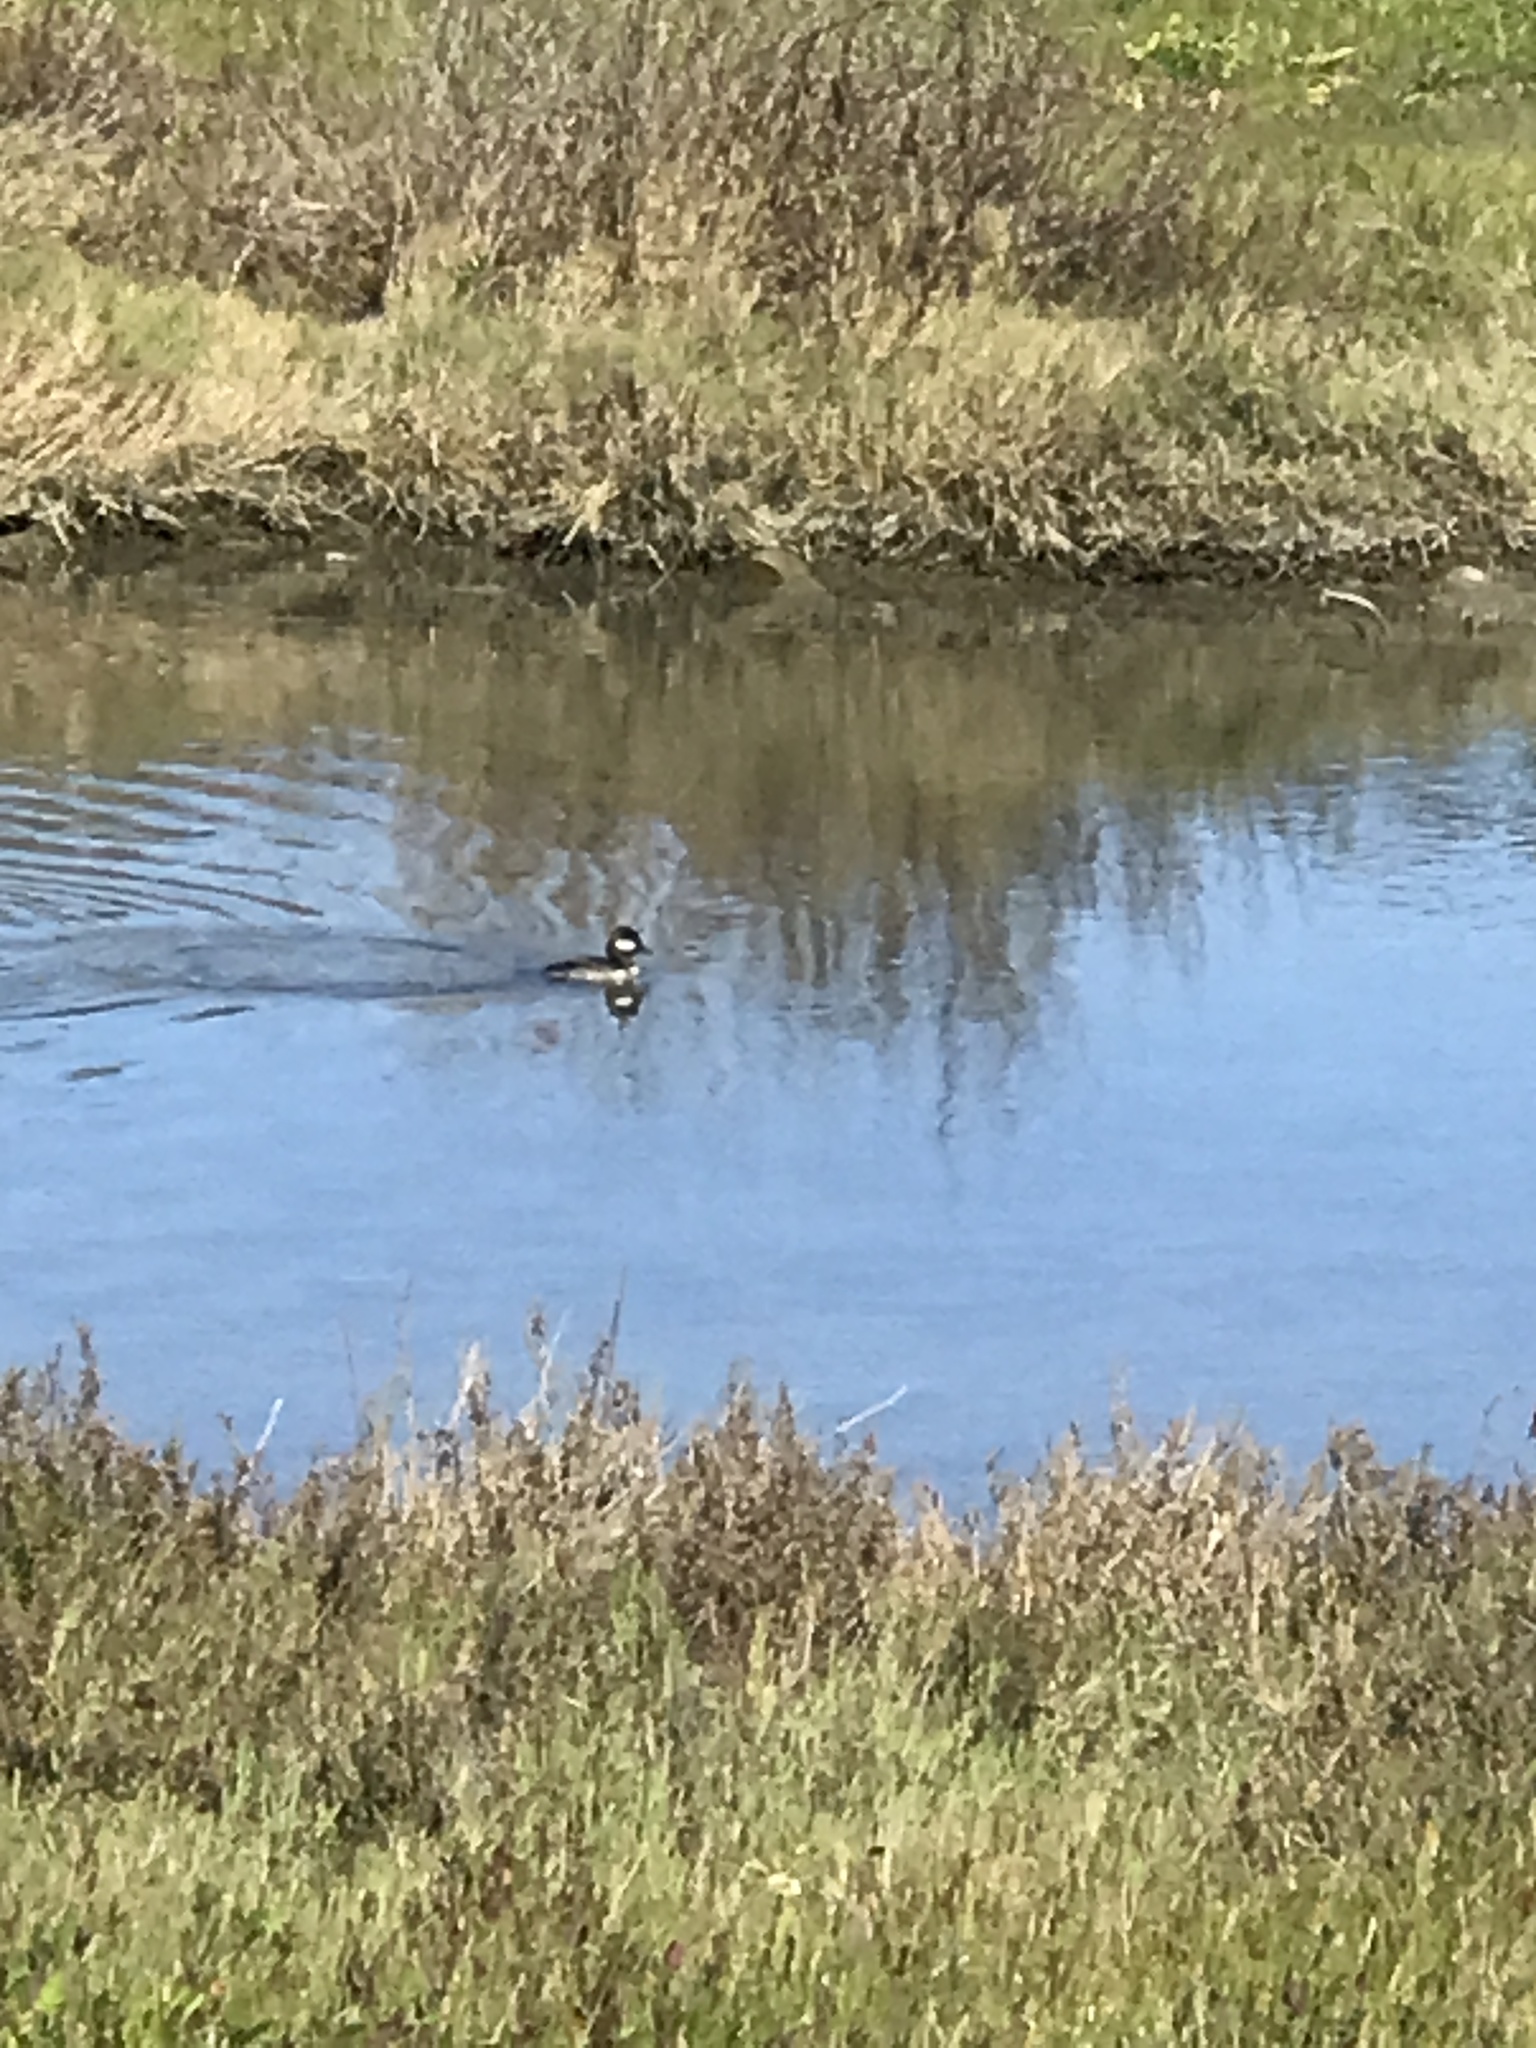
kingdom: Animalia
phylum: Chordata
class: Aves
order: Anseriformes
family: Anatidae
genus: Bucephala
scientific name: Bucephala albeola
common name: Bufflehead
